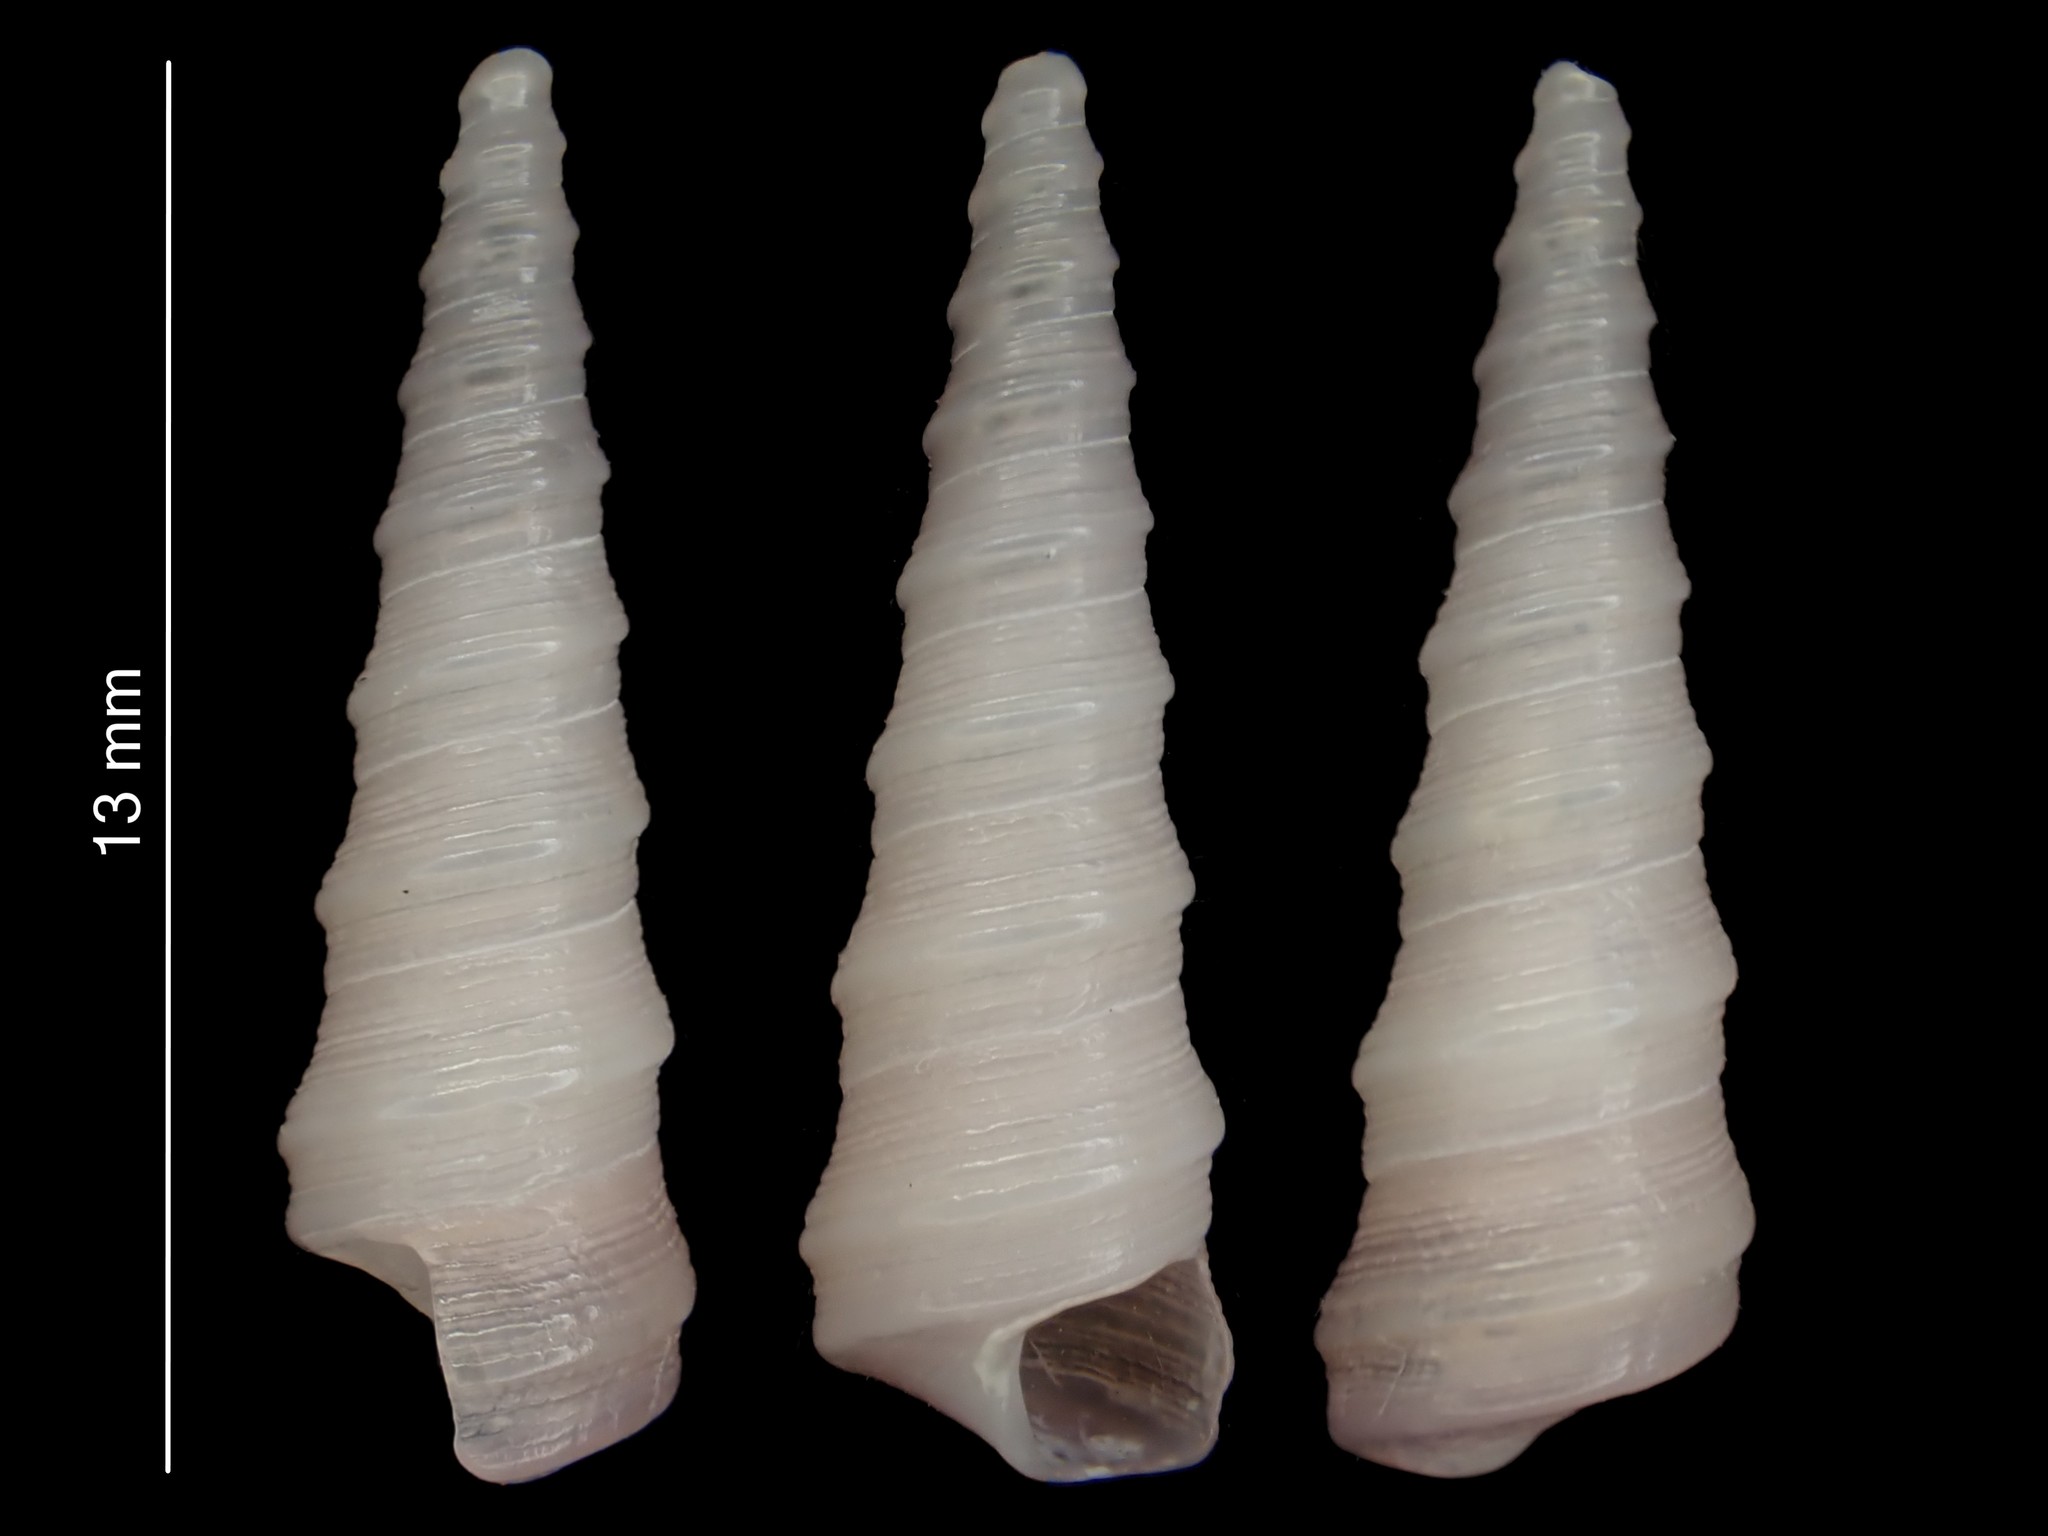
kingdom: Animalia
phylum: Mollusca
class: Gastropoda
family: Turritellidae
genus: Stiracolpus
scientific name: Stiracolpus ahiparanus
